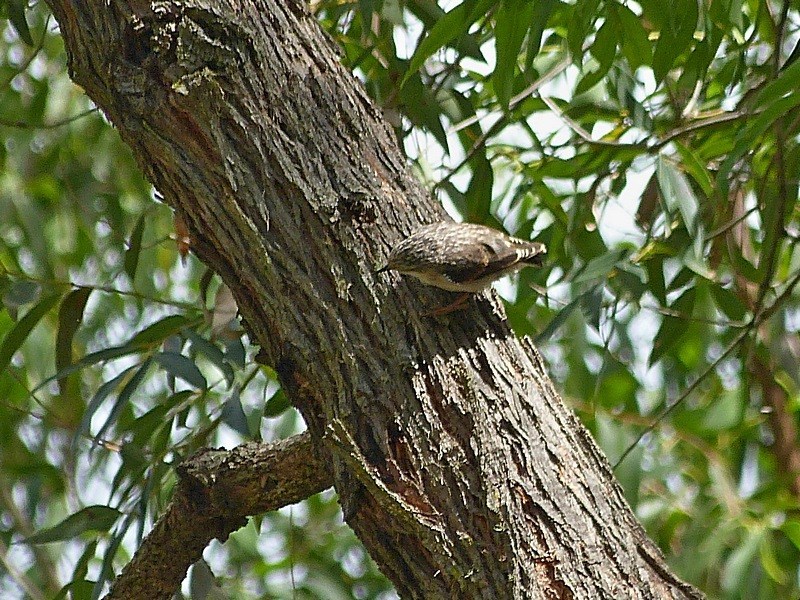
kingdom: Animalia
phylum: Chordata
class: Aves
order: Passeriformes
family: Neosittidae
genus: Daphoenositta
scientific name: Daphoenositta chrysoptera
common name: Varied sittella
